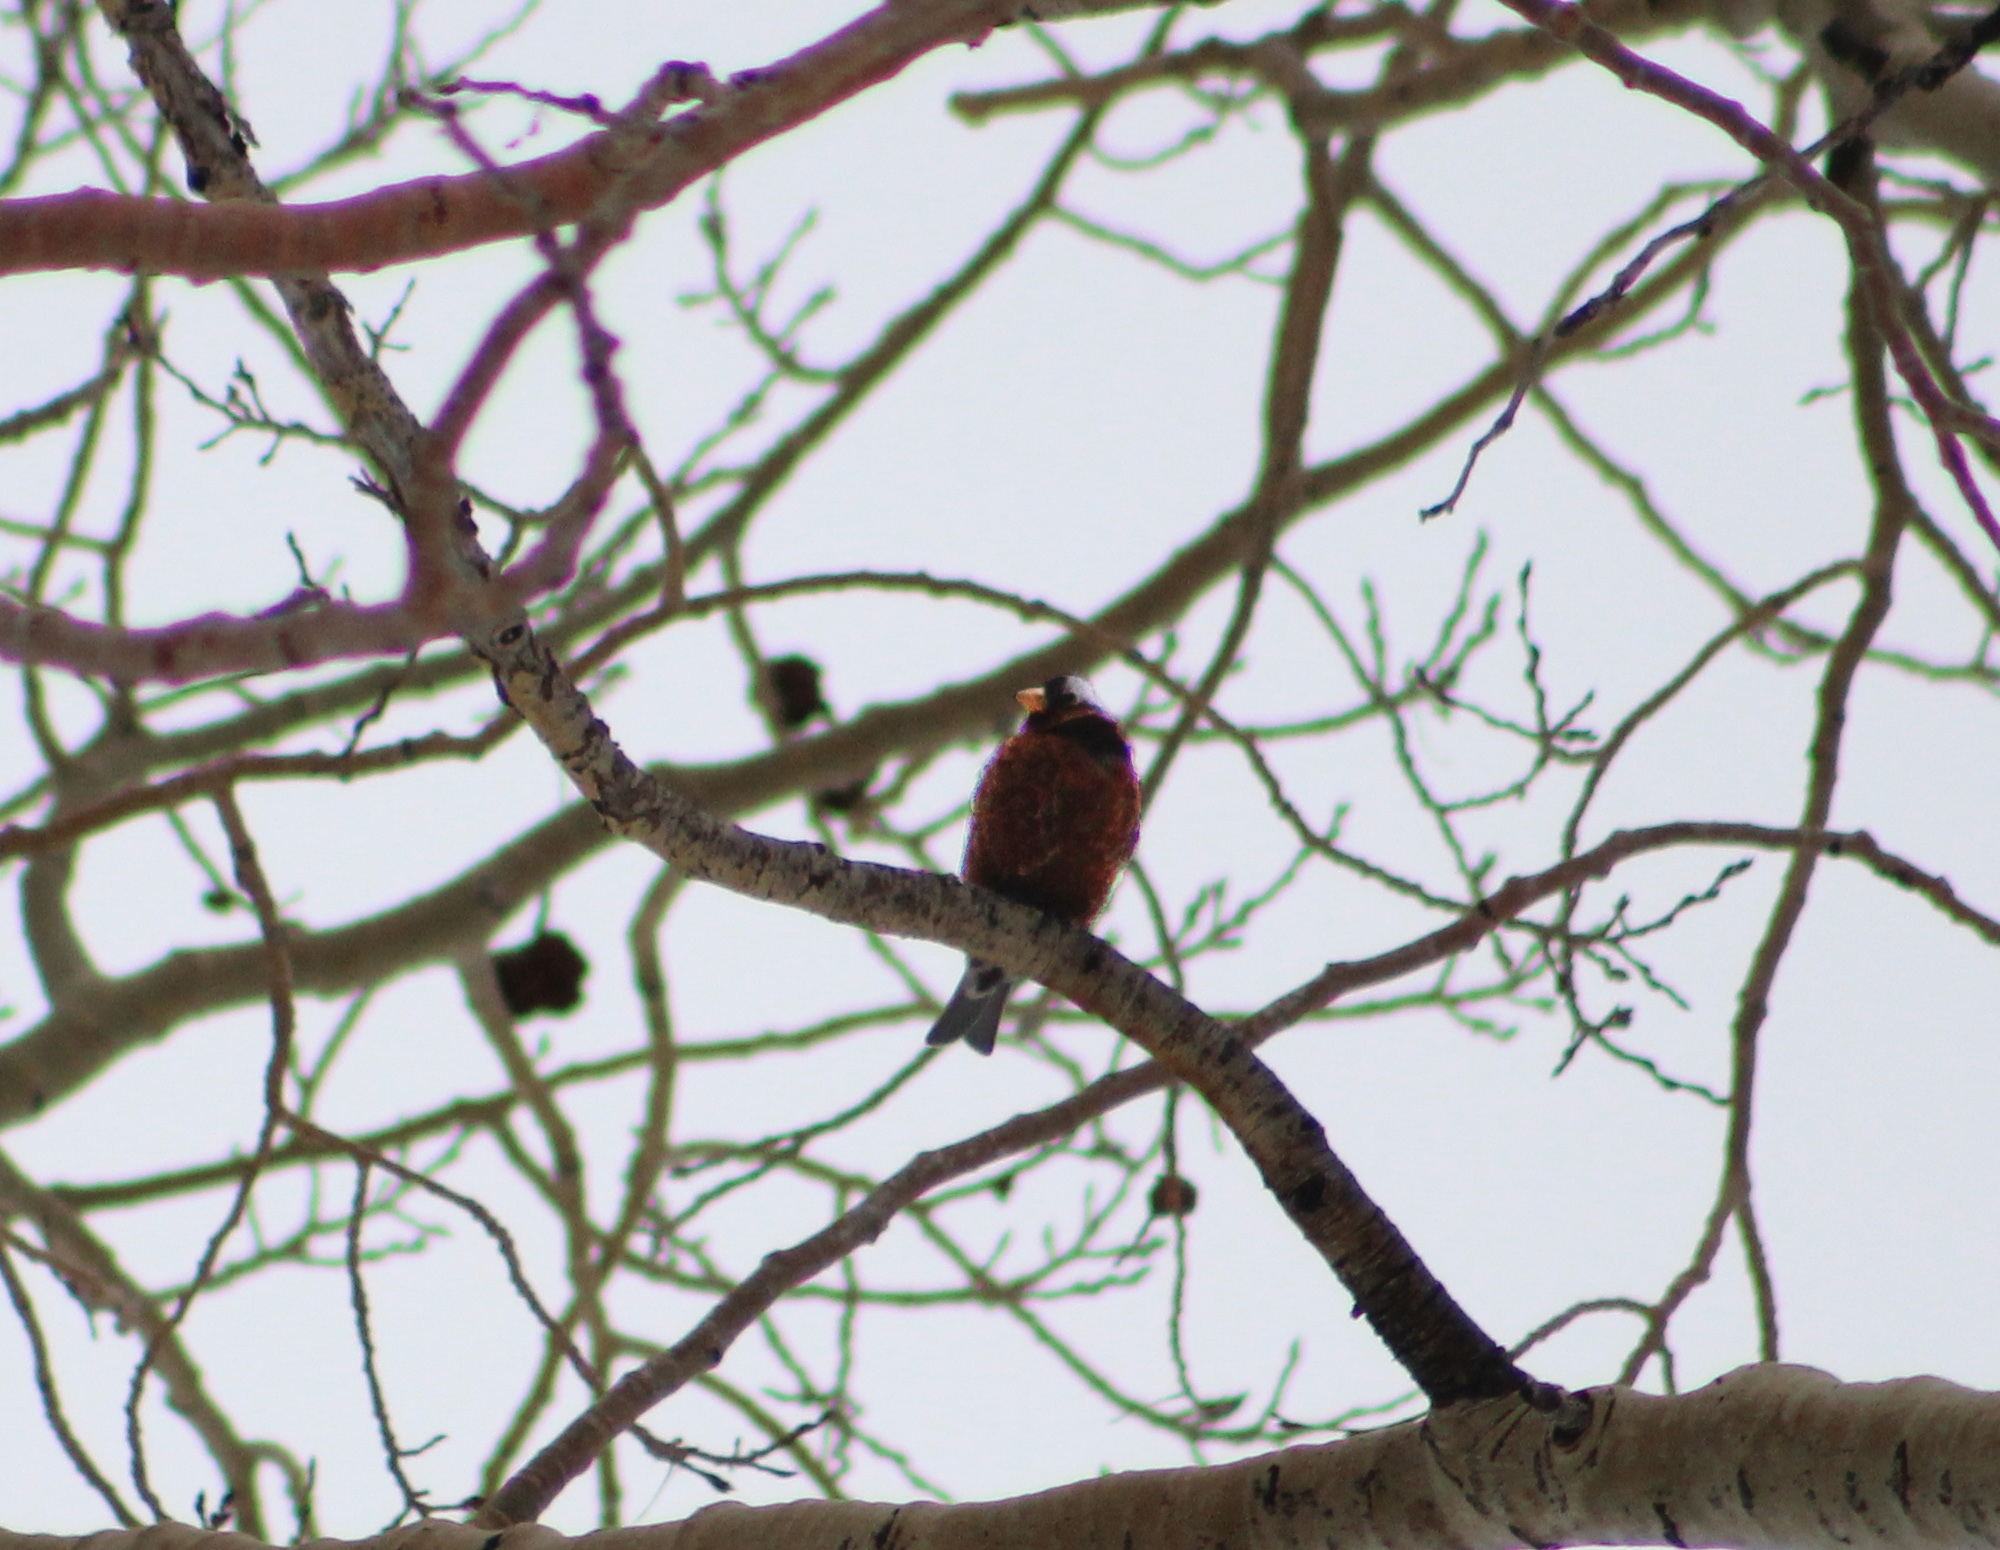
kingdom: Animalia
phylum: Chordata
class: Aves
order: Passeriformes
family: Fringillidae
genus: Leucosticte
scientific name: Leucosticte tephrocotis
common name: Gray-crowned rosy-finch
